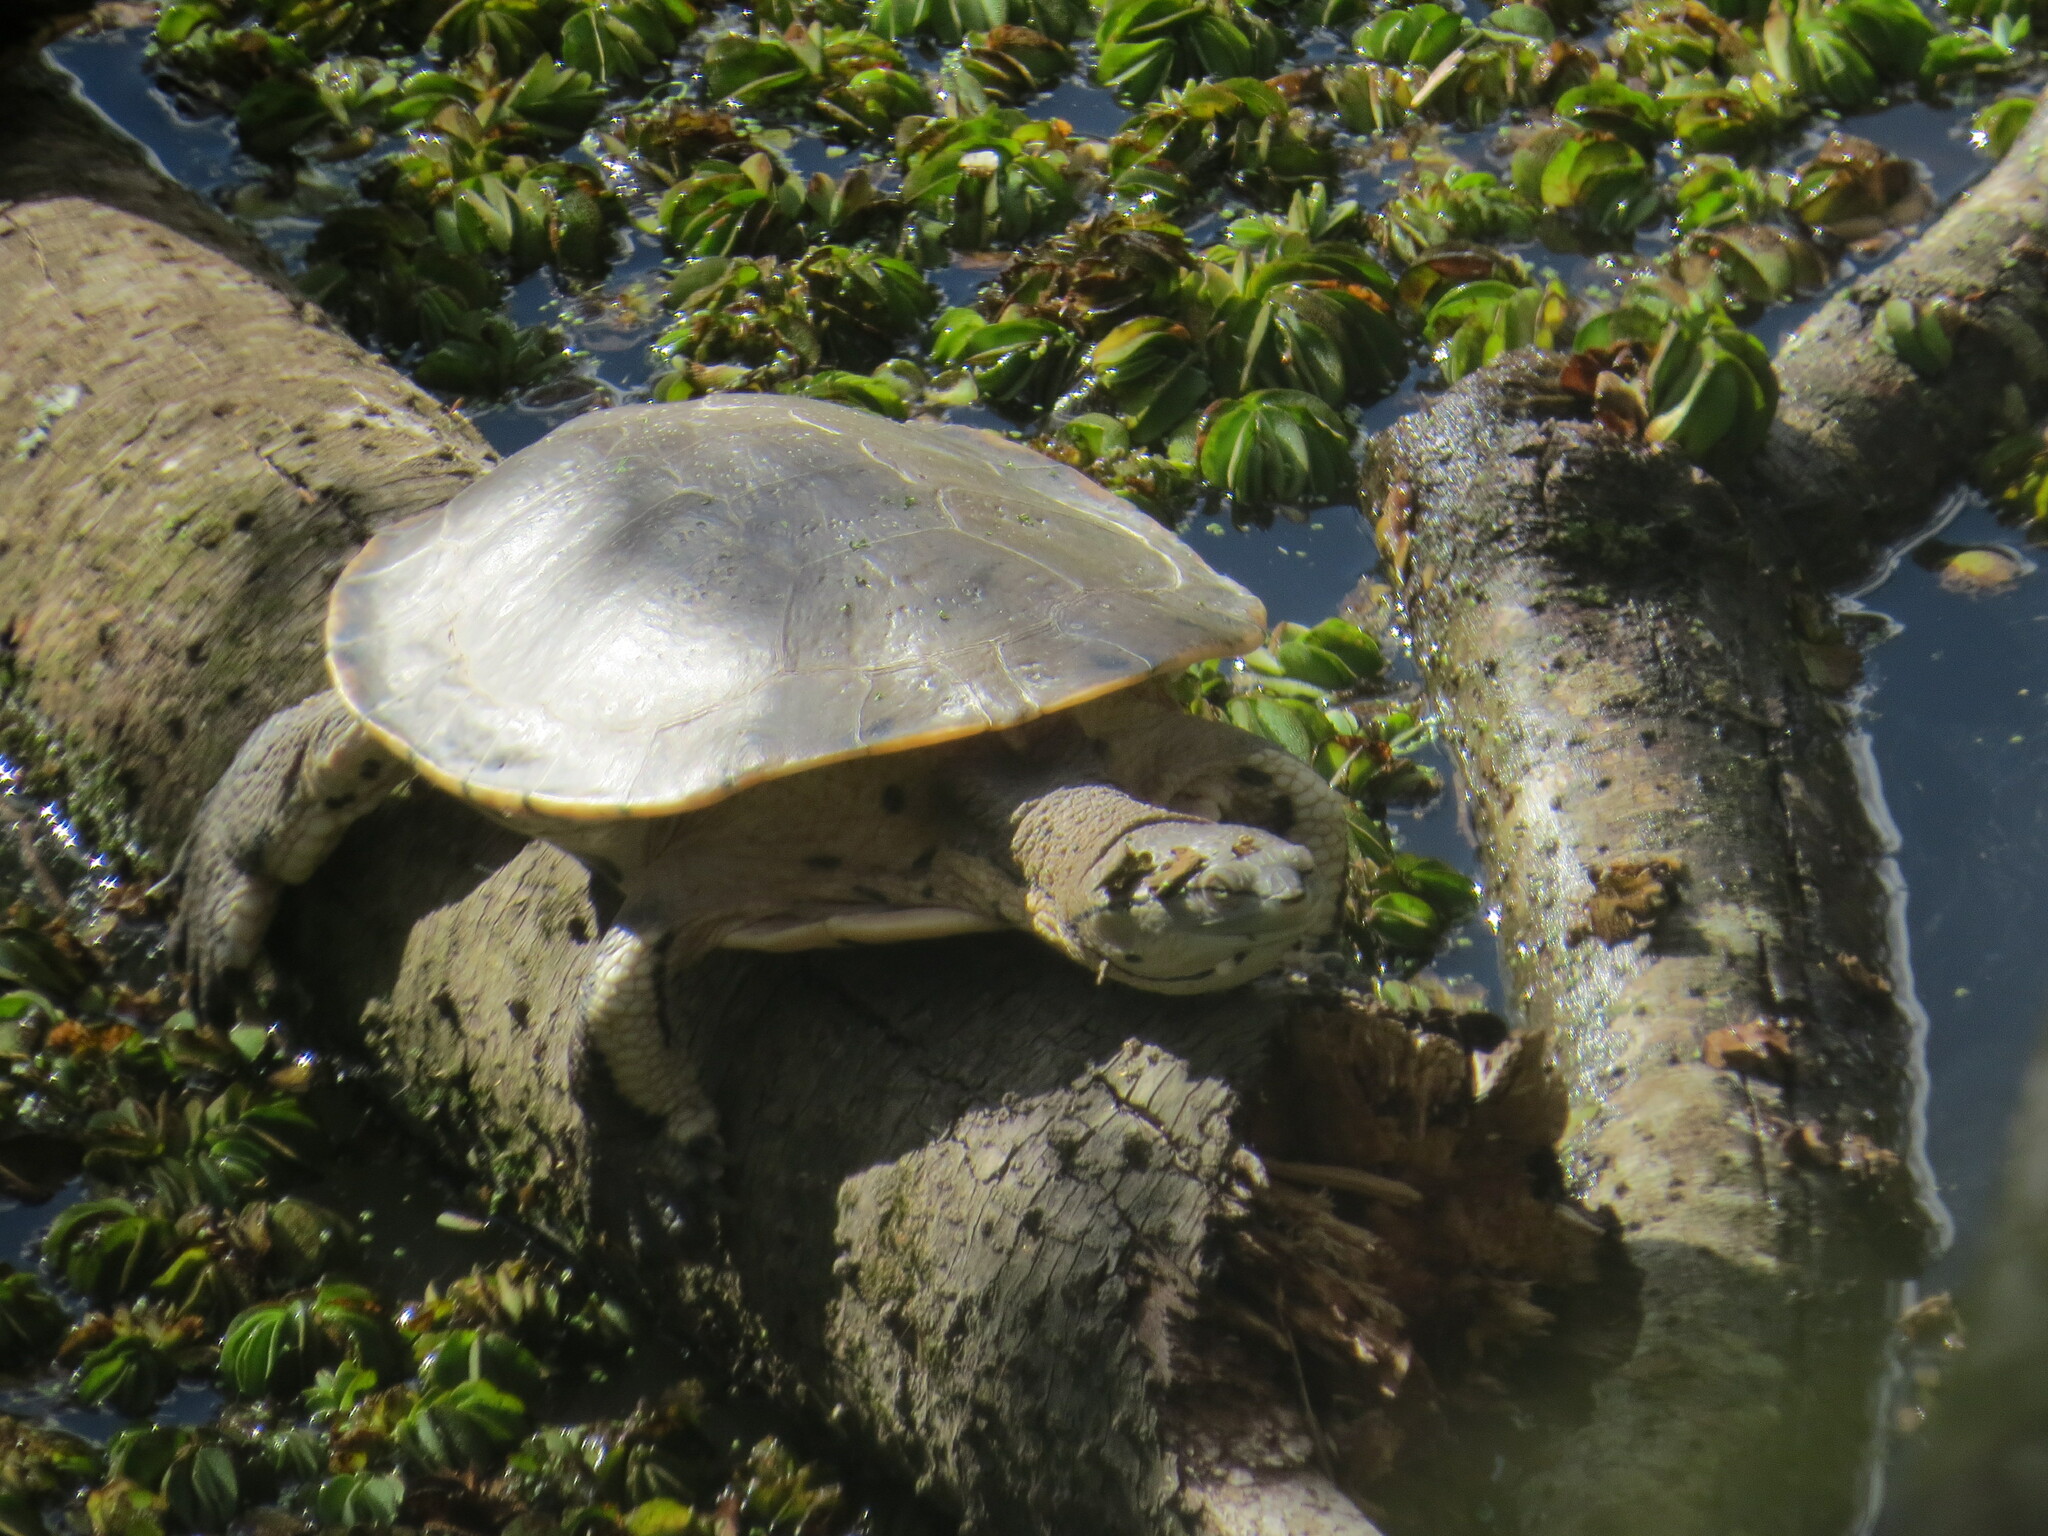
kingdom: Animalia
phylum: Chordata
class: Testudines
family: Chelidae
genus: Phrynops
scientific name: Phrynops hilarii
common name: Side-necked turtle of saint hillaire
